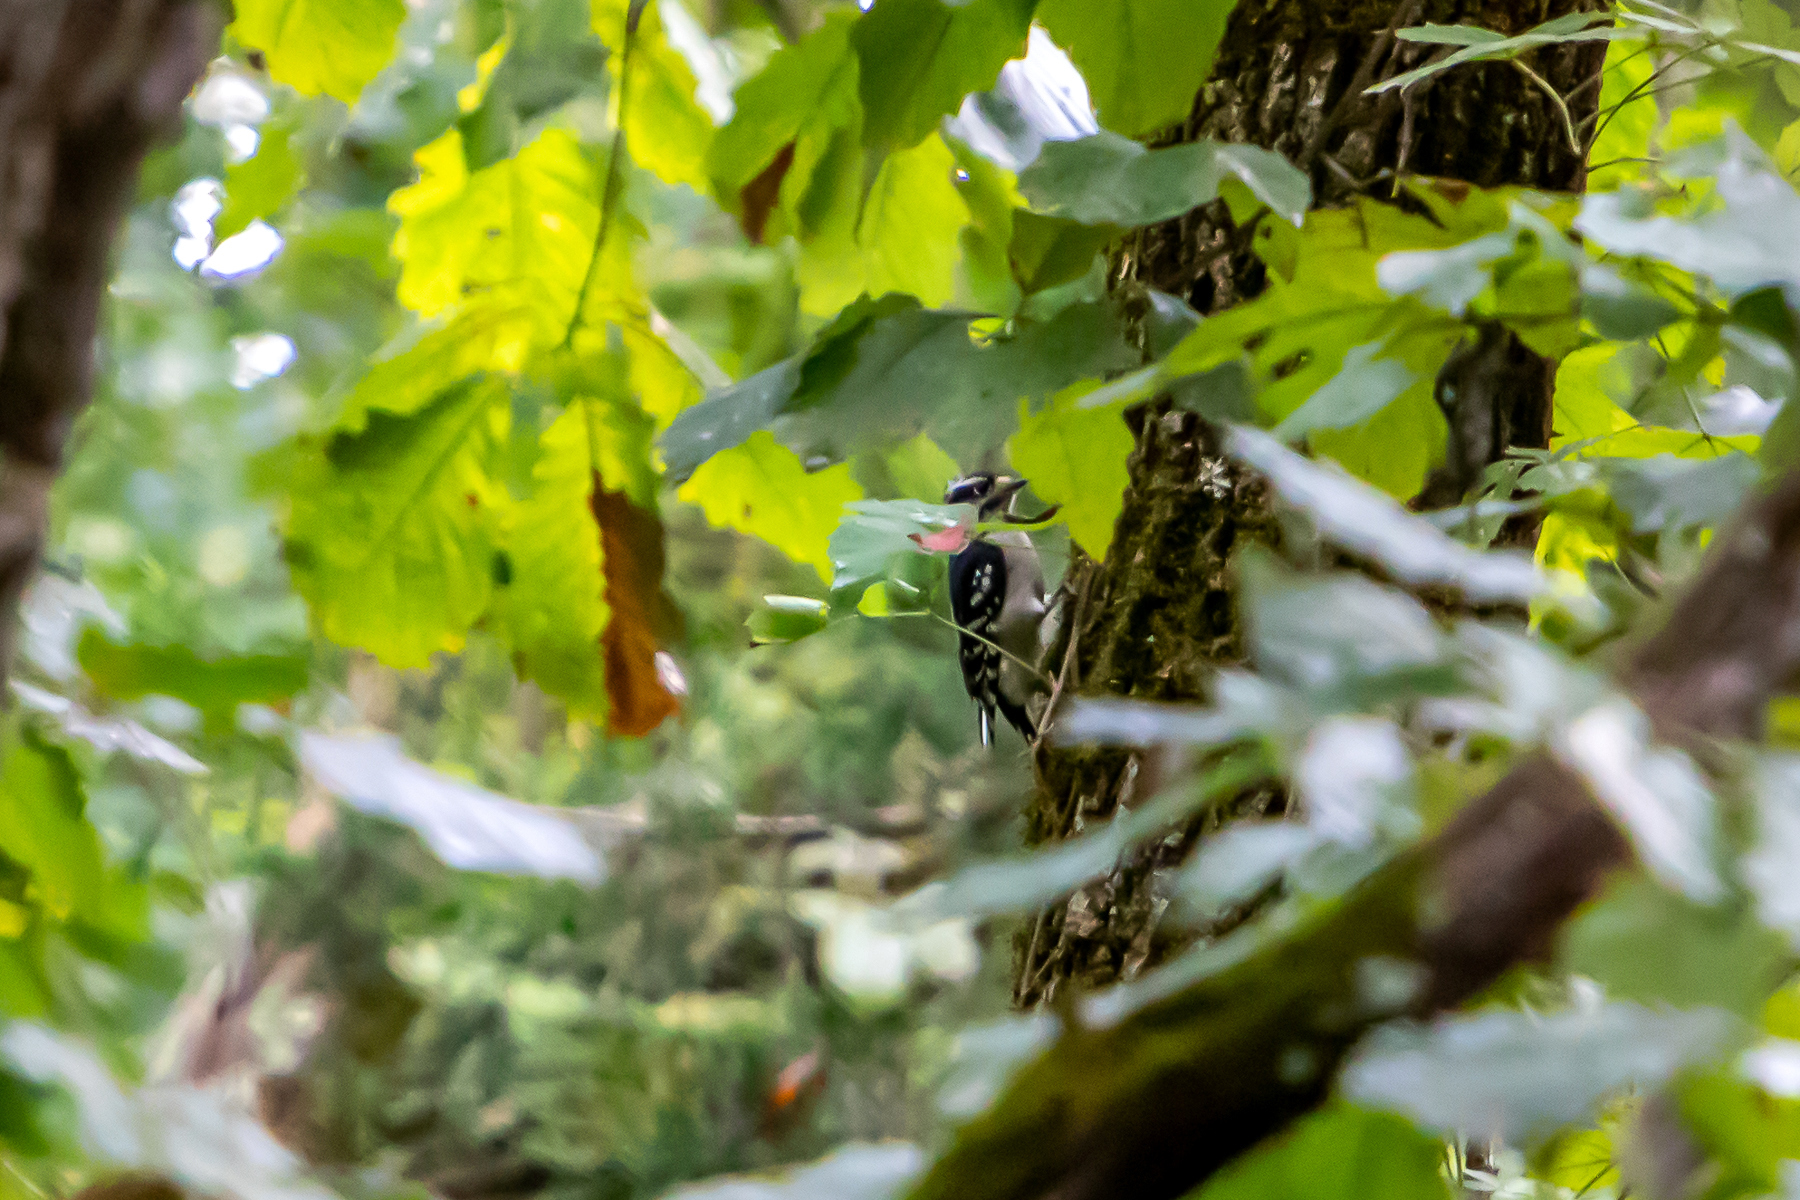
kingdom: Animalia
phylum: Chordata
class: Aves
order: Piciformes
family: Picidae
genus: Dryobates
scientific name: Dryobates pubescens
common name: Downy woodpecker
